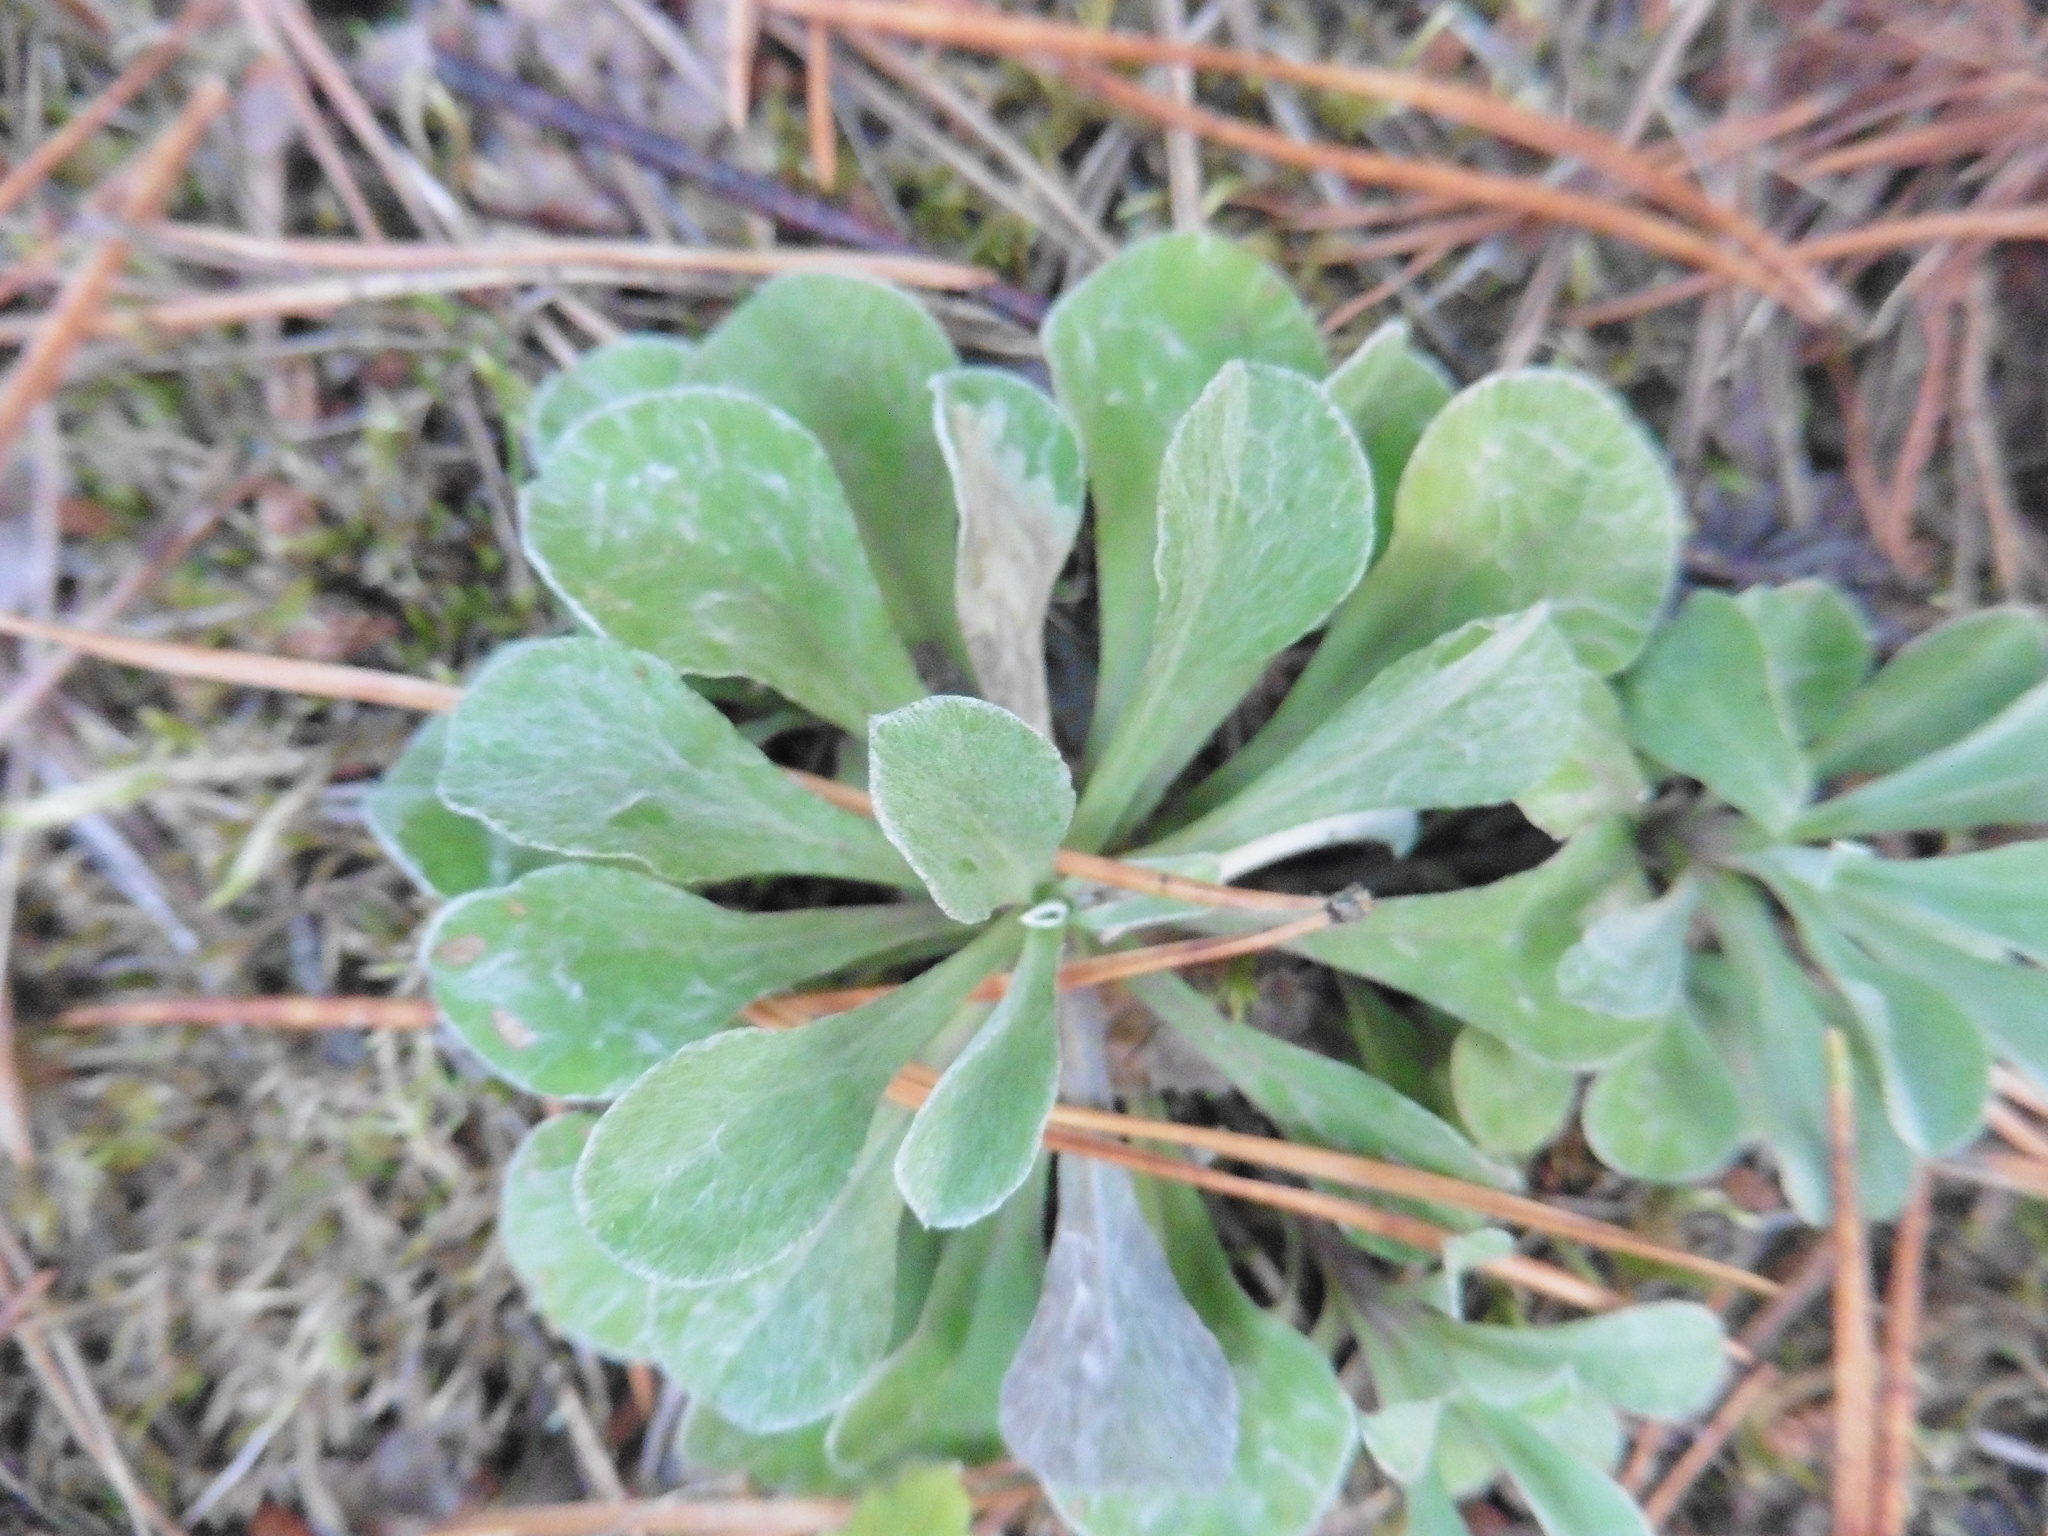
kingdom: Plantae
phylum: Tracheophyta
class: Magnoliopsida
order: Asterales
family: Asteraceae
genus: Antennaria
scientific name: Antennaria dioica
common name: Mountain everlasting
